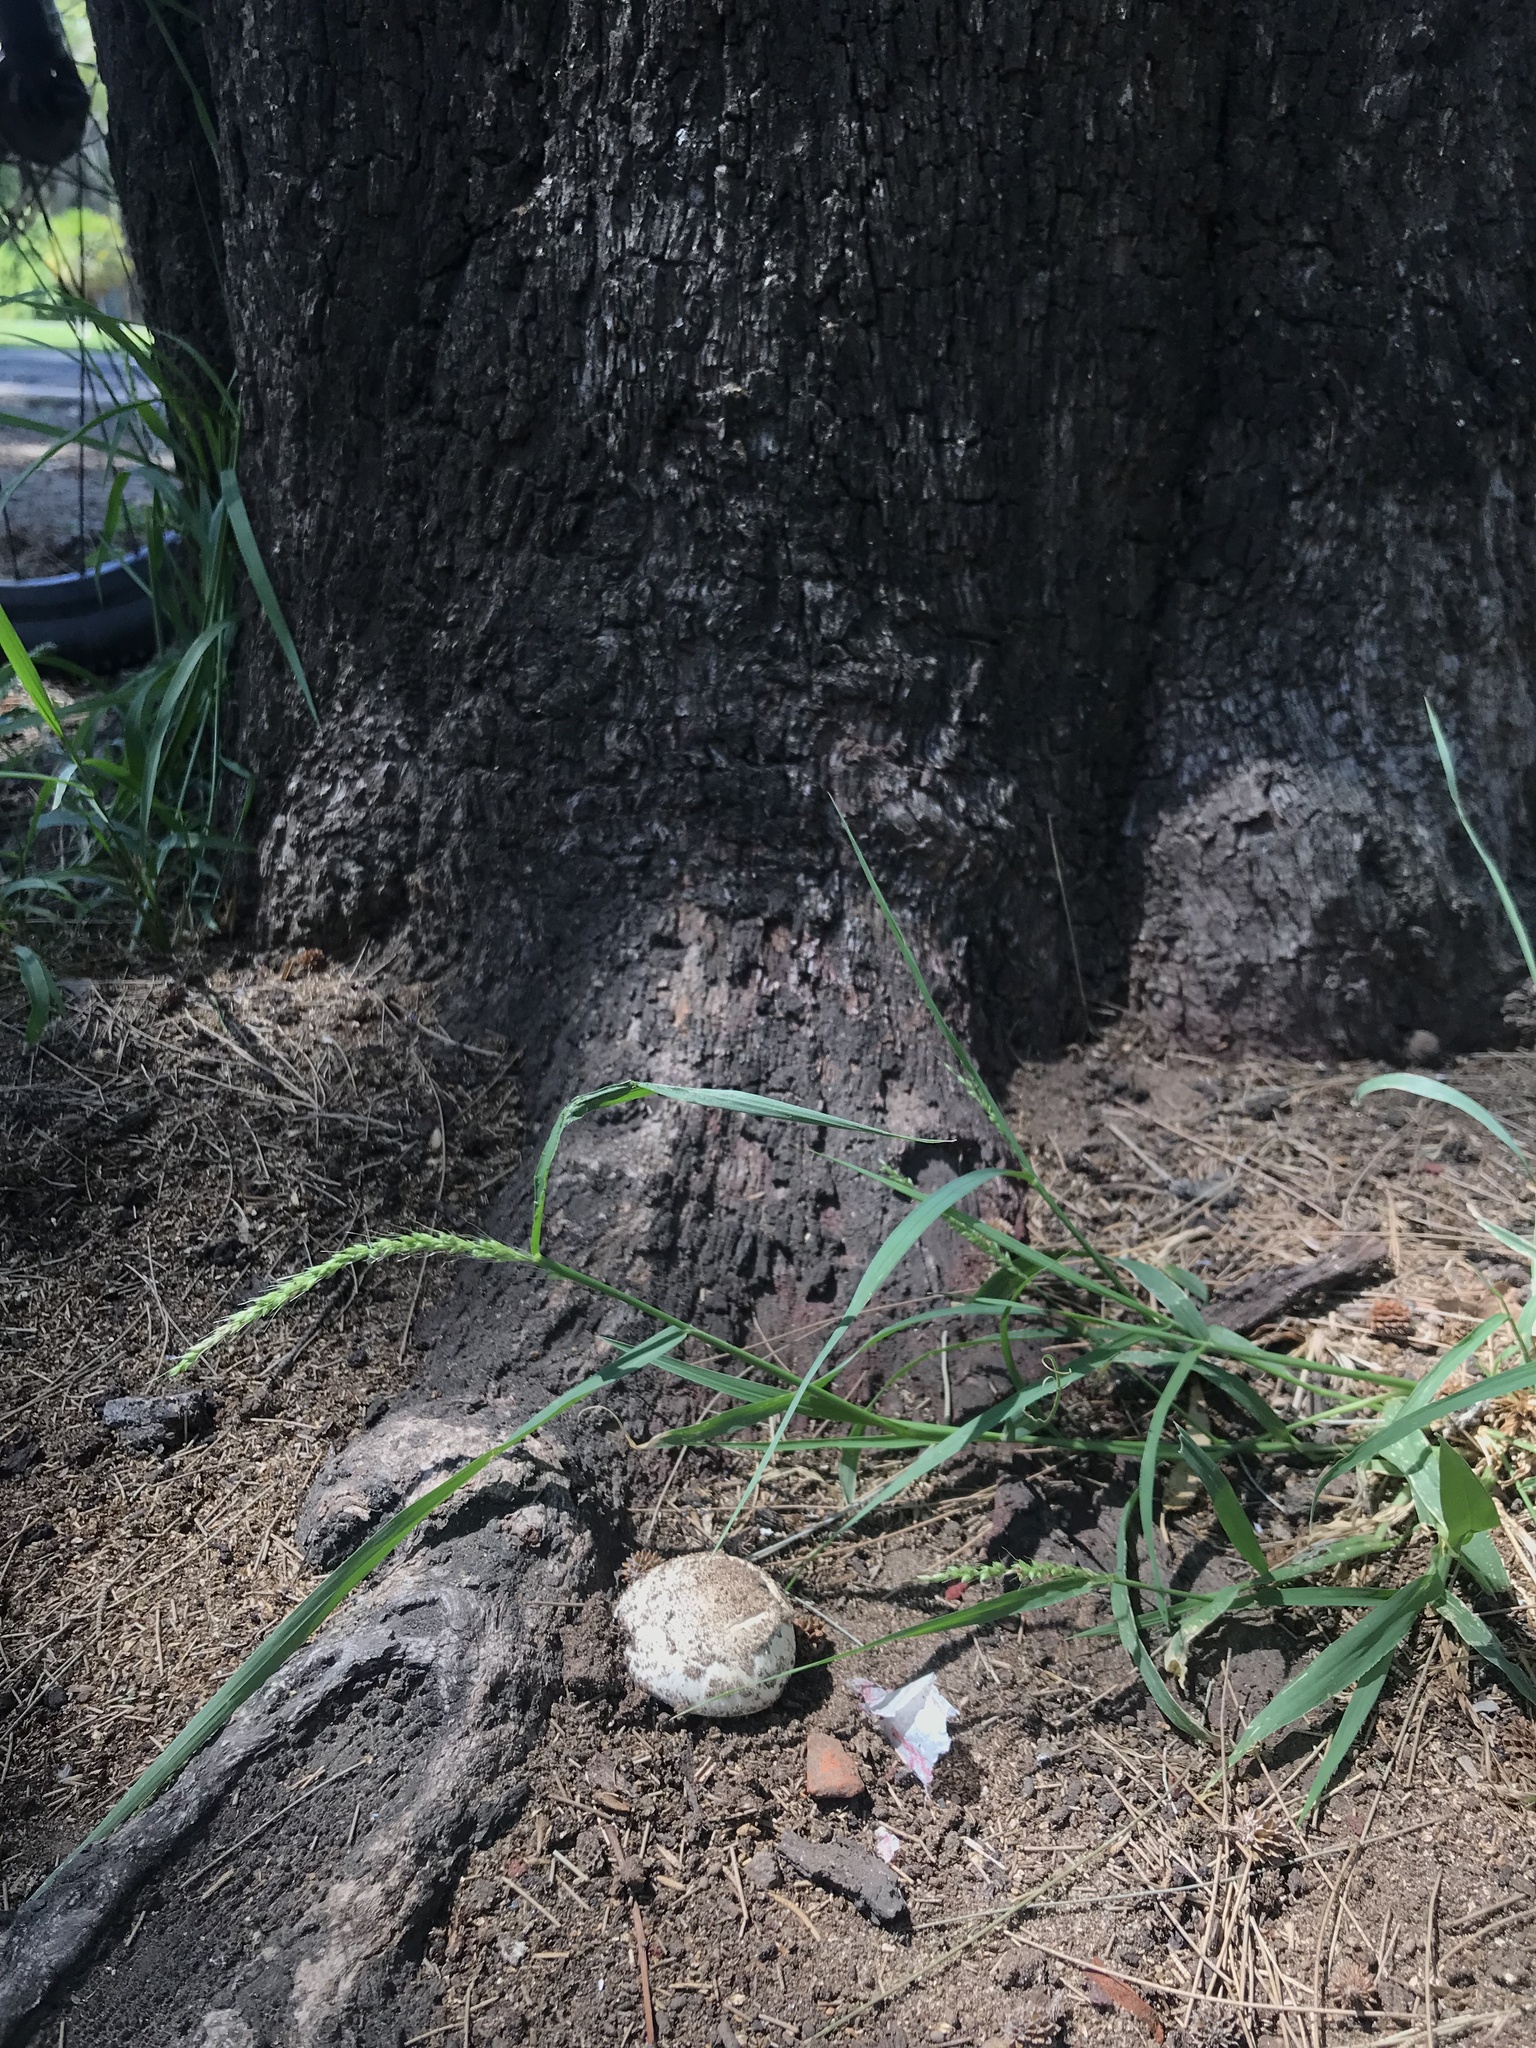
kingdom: Fungi
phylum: Basidiomycota
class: Agaricomycetes
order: Agaricales
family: Agaricaceae
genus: Agaricus
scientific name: Agaricus campestris
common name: Field mushroom
